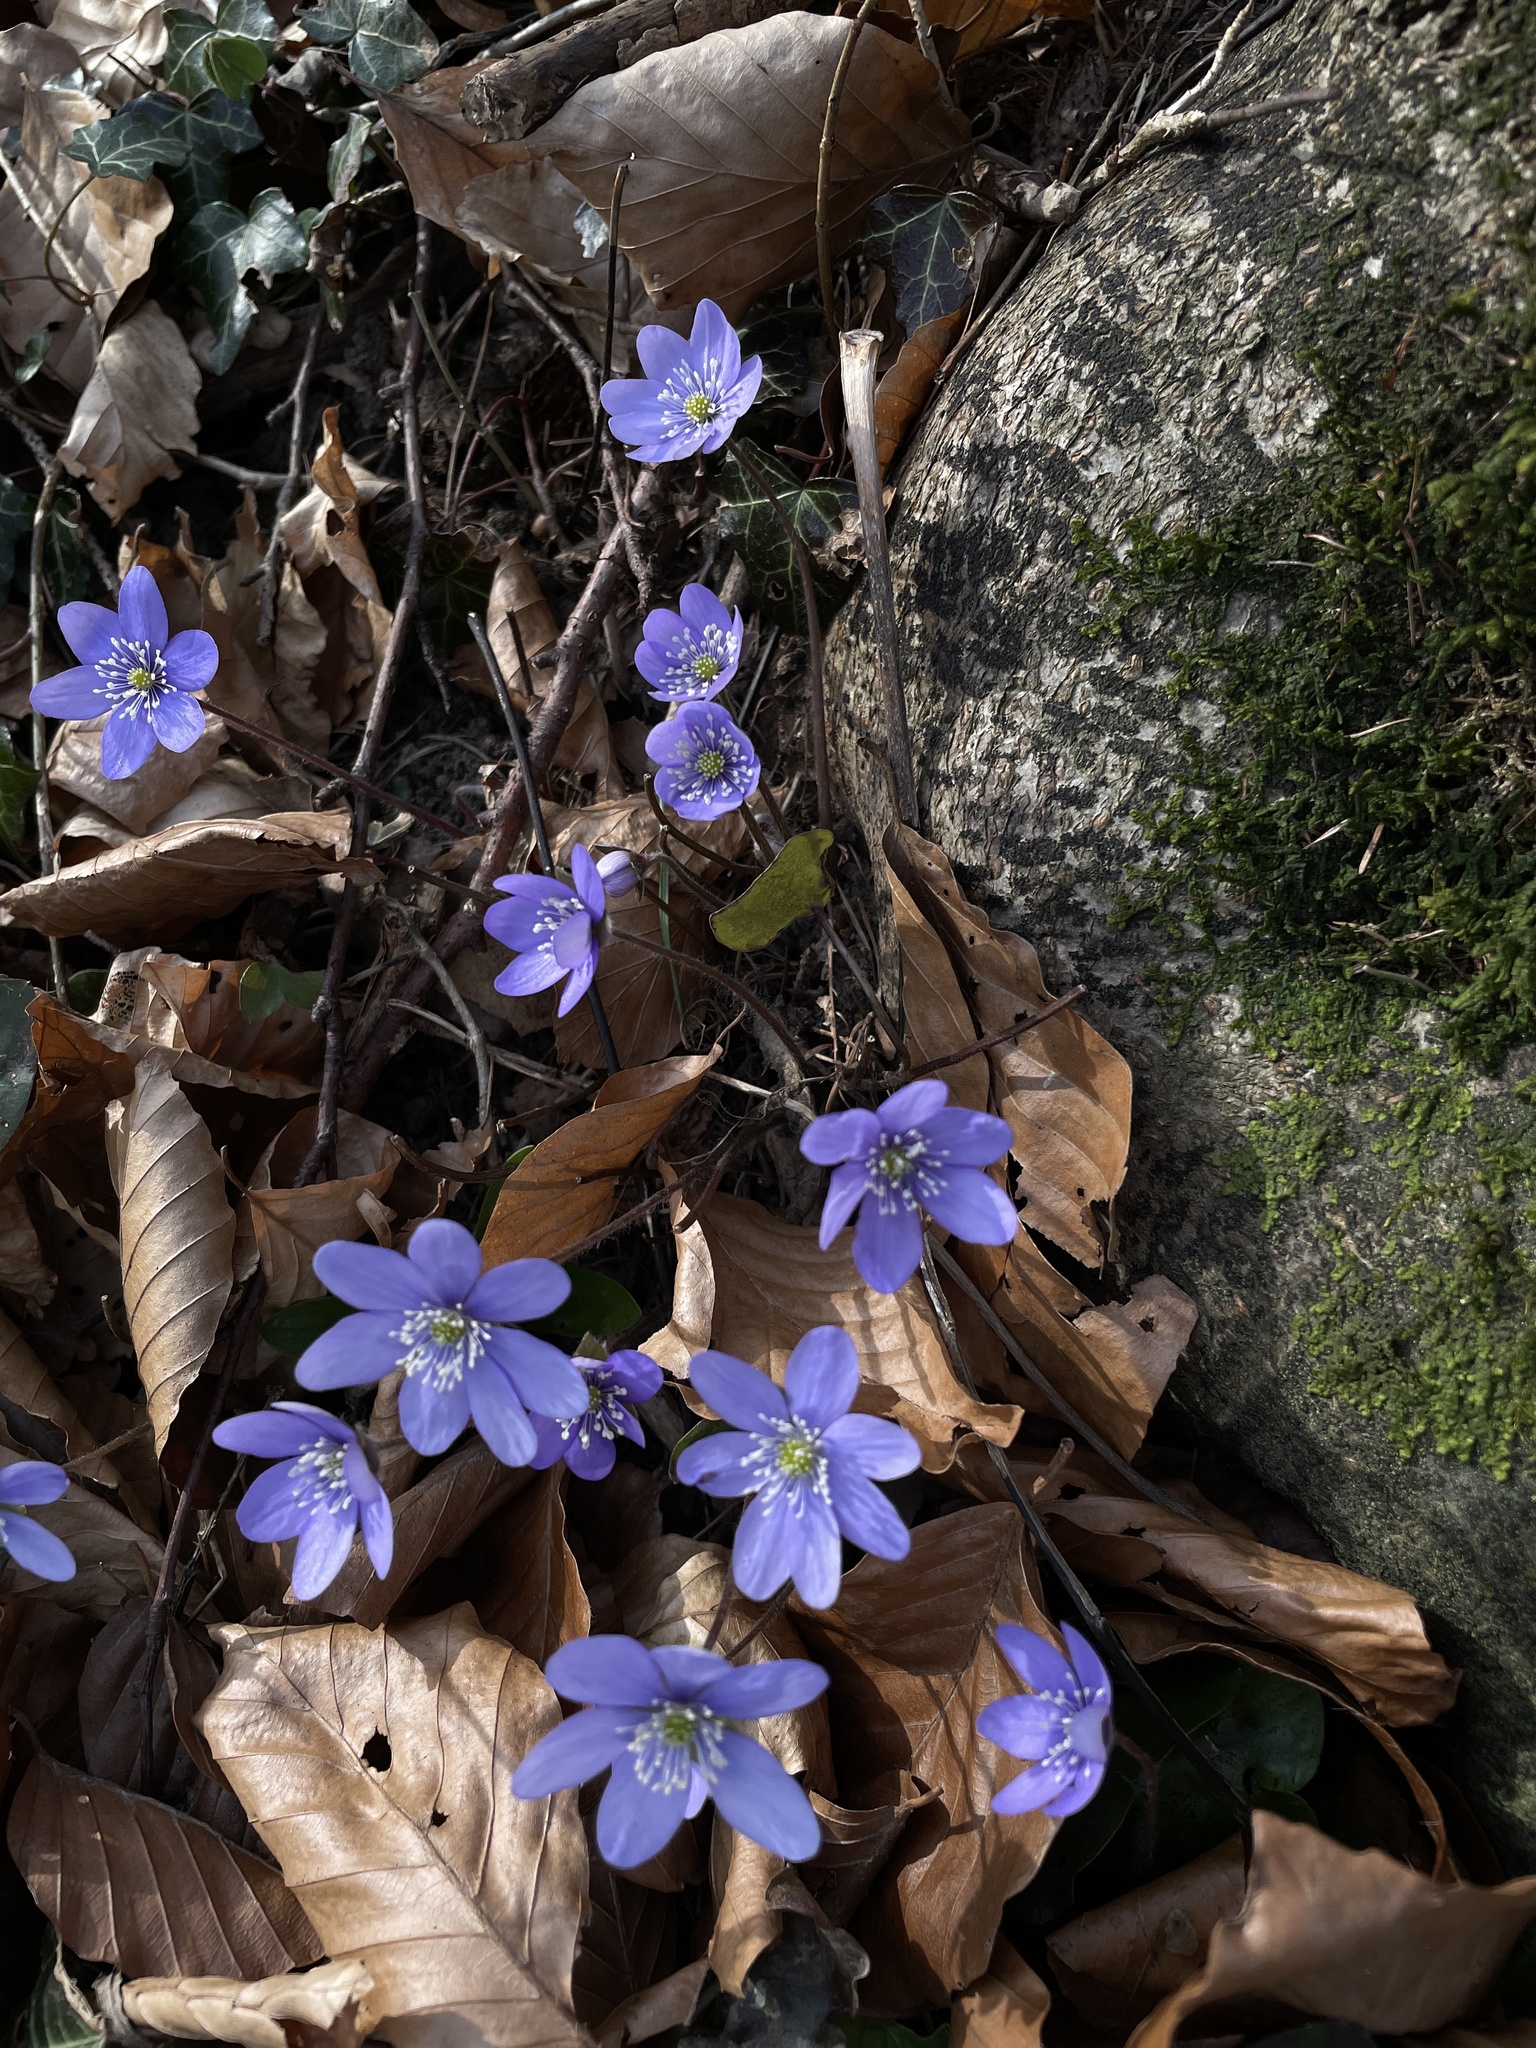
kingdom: Plantae
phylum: Tracheophyta
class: Magnoliopsida
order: Ranunculales
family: Ranunculaceae
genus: Hepatica
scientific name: Hepatica nobilis
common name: Liverleaf
